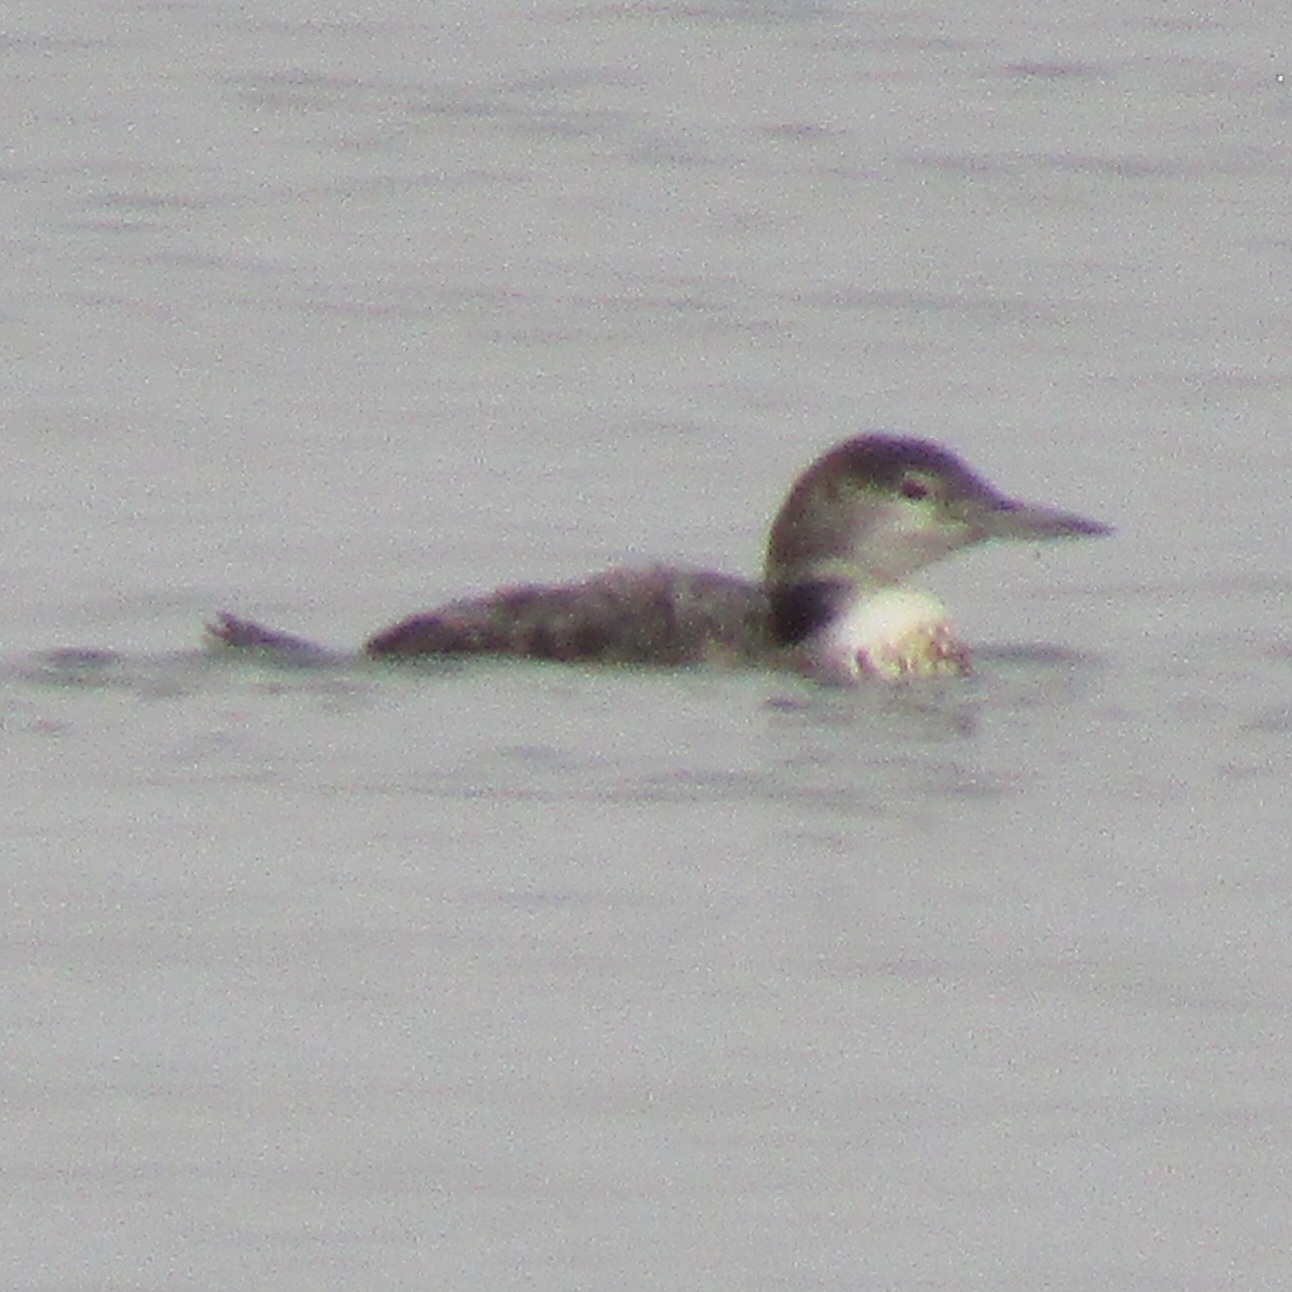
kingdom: Animalia
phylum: Chordata
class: Aves
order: Gaviiformes
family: Gaviidae
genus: Gavia
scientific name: Gavia immer
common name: Common loon
